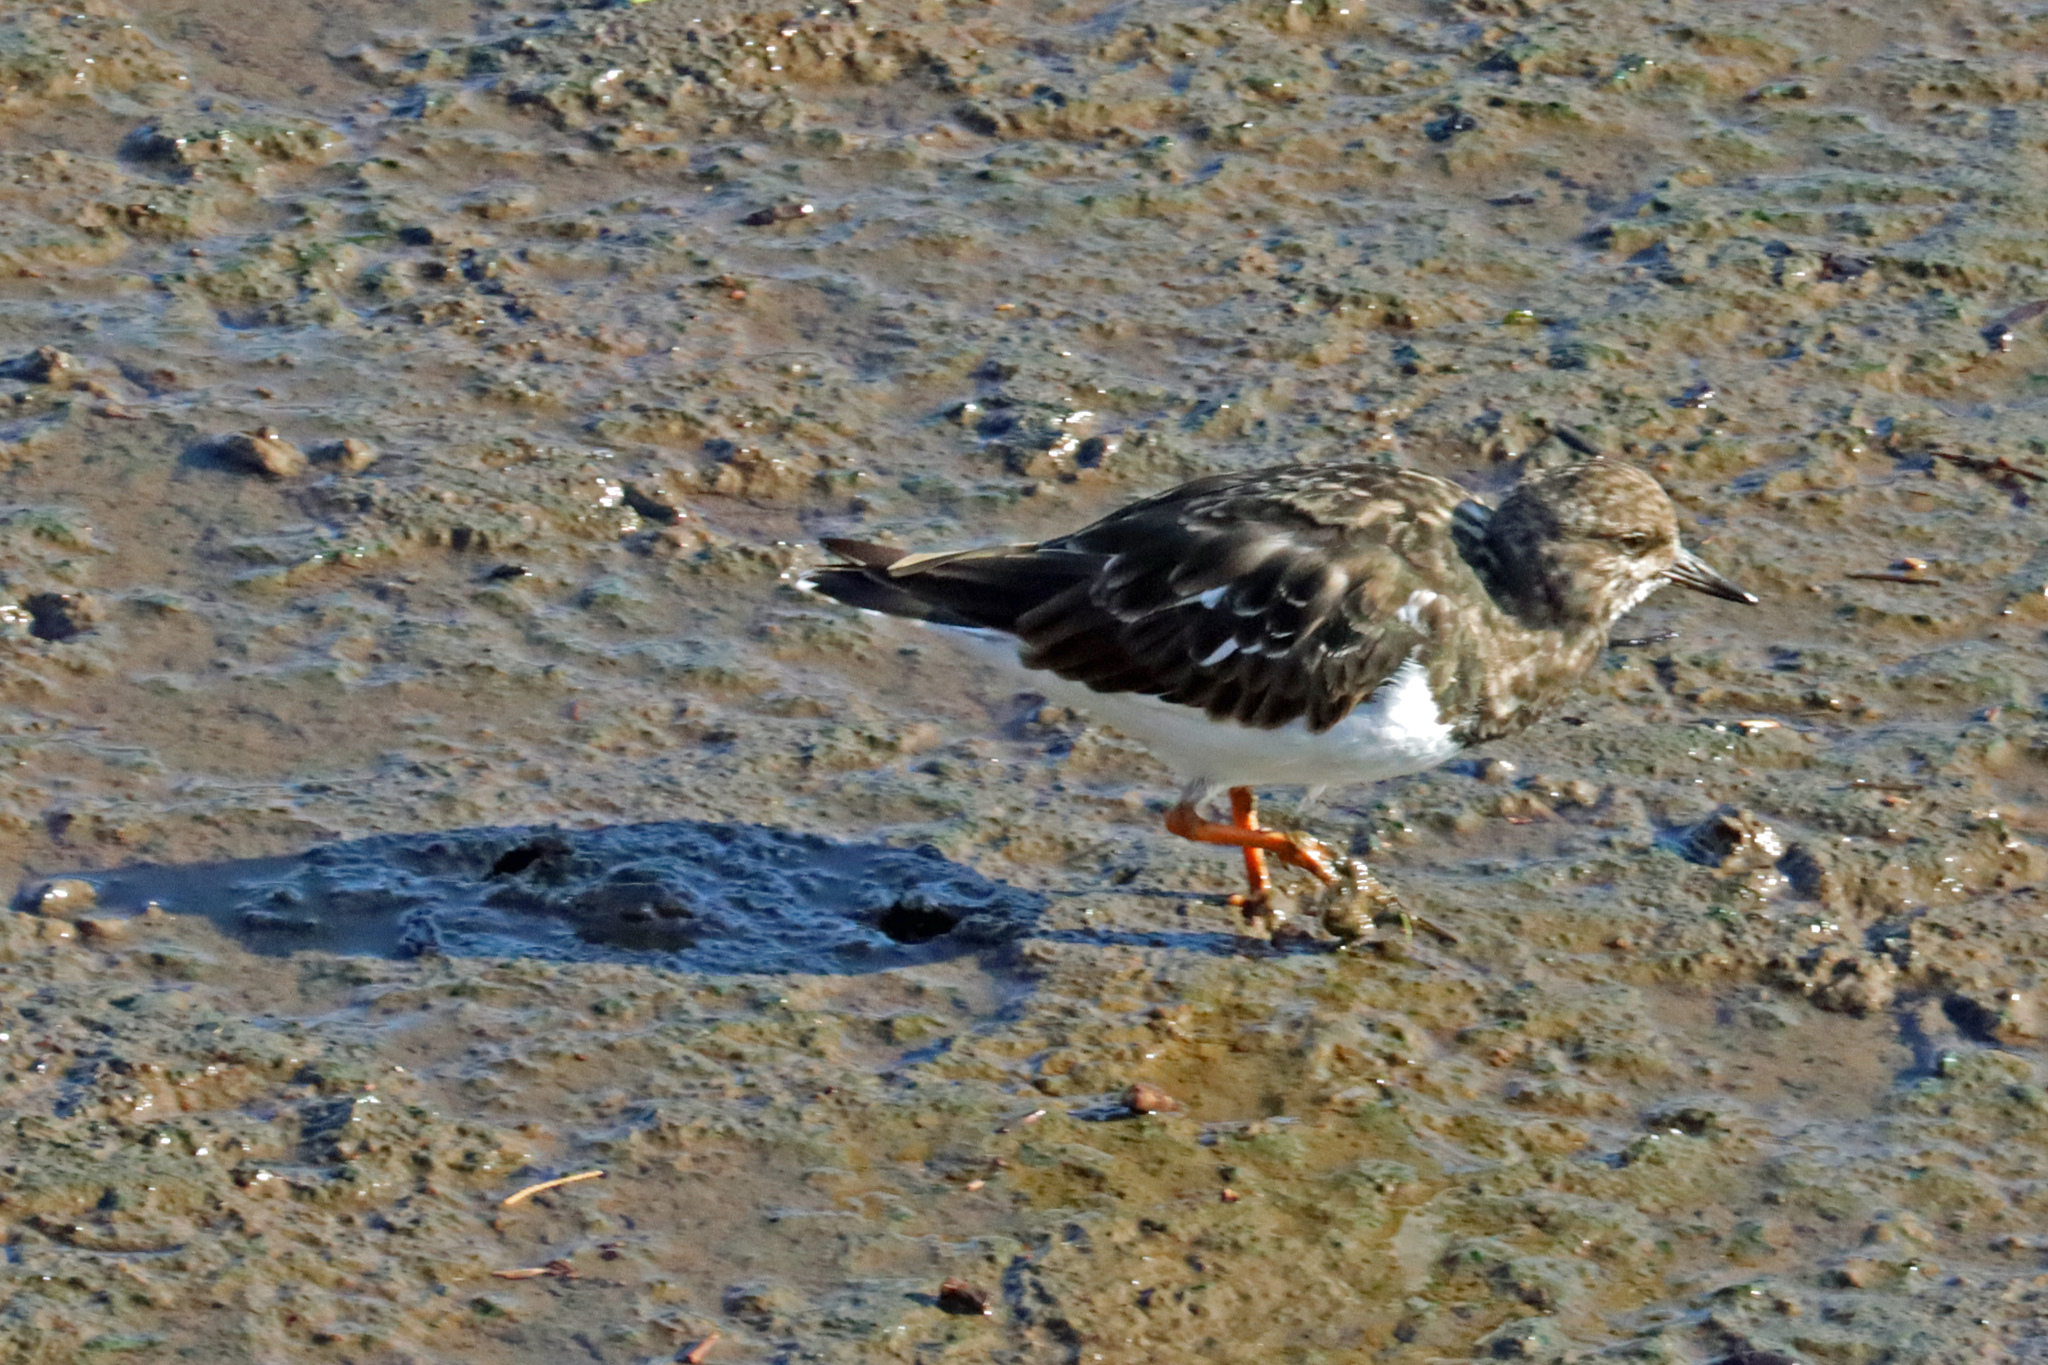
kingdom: Animalia
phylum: Chordata
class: Aves
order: Charadriiformes
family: Scolopacidae
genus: Arenaria
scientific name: Arenaria interpres
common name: Ruddy turnstone
